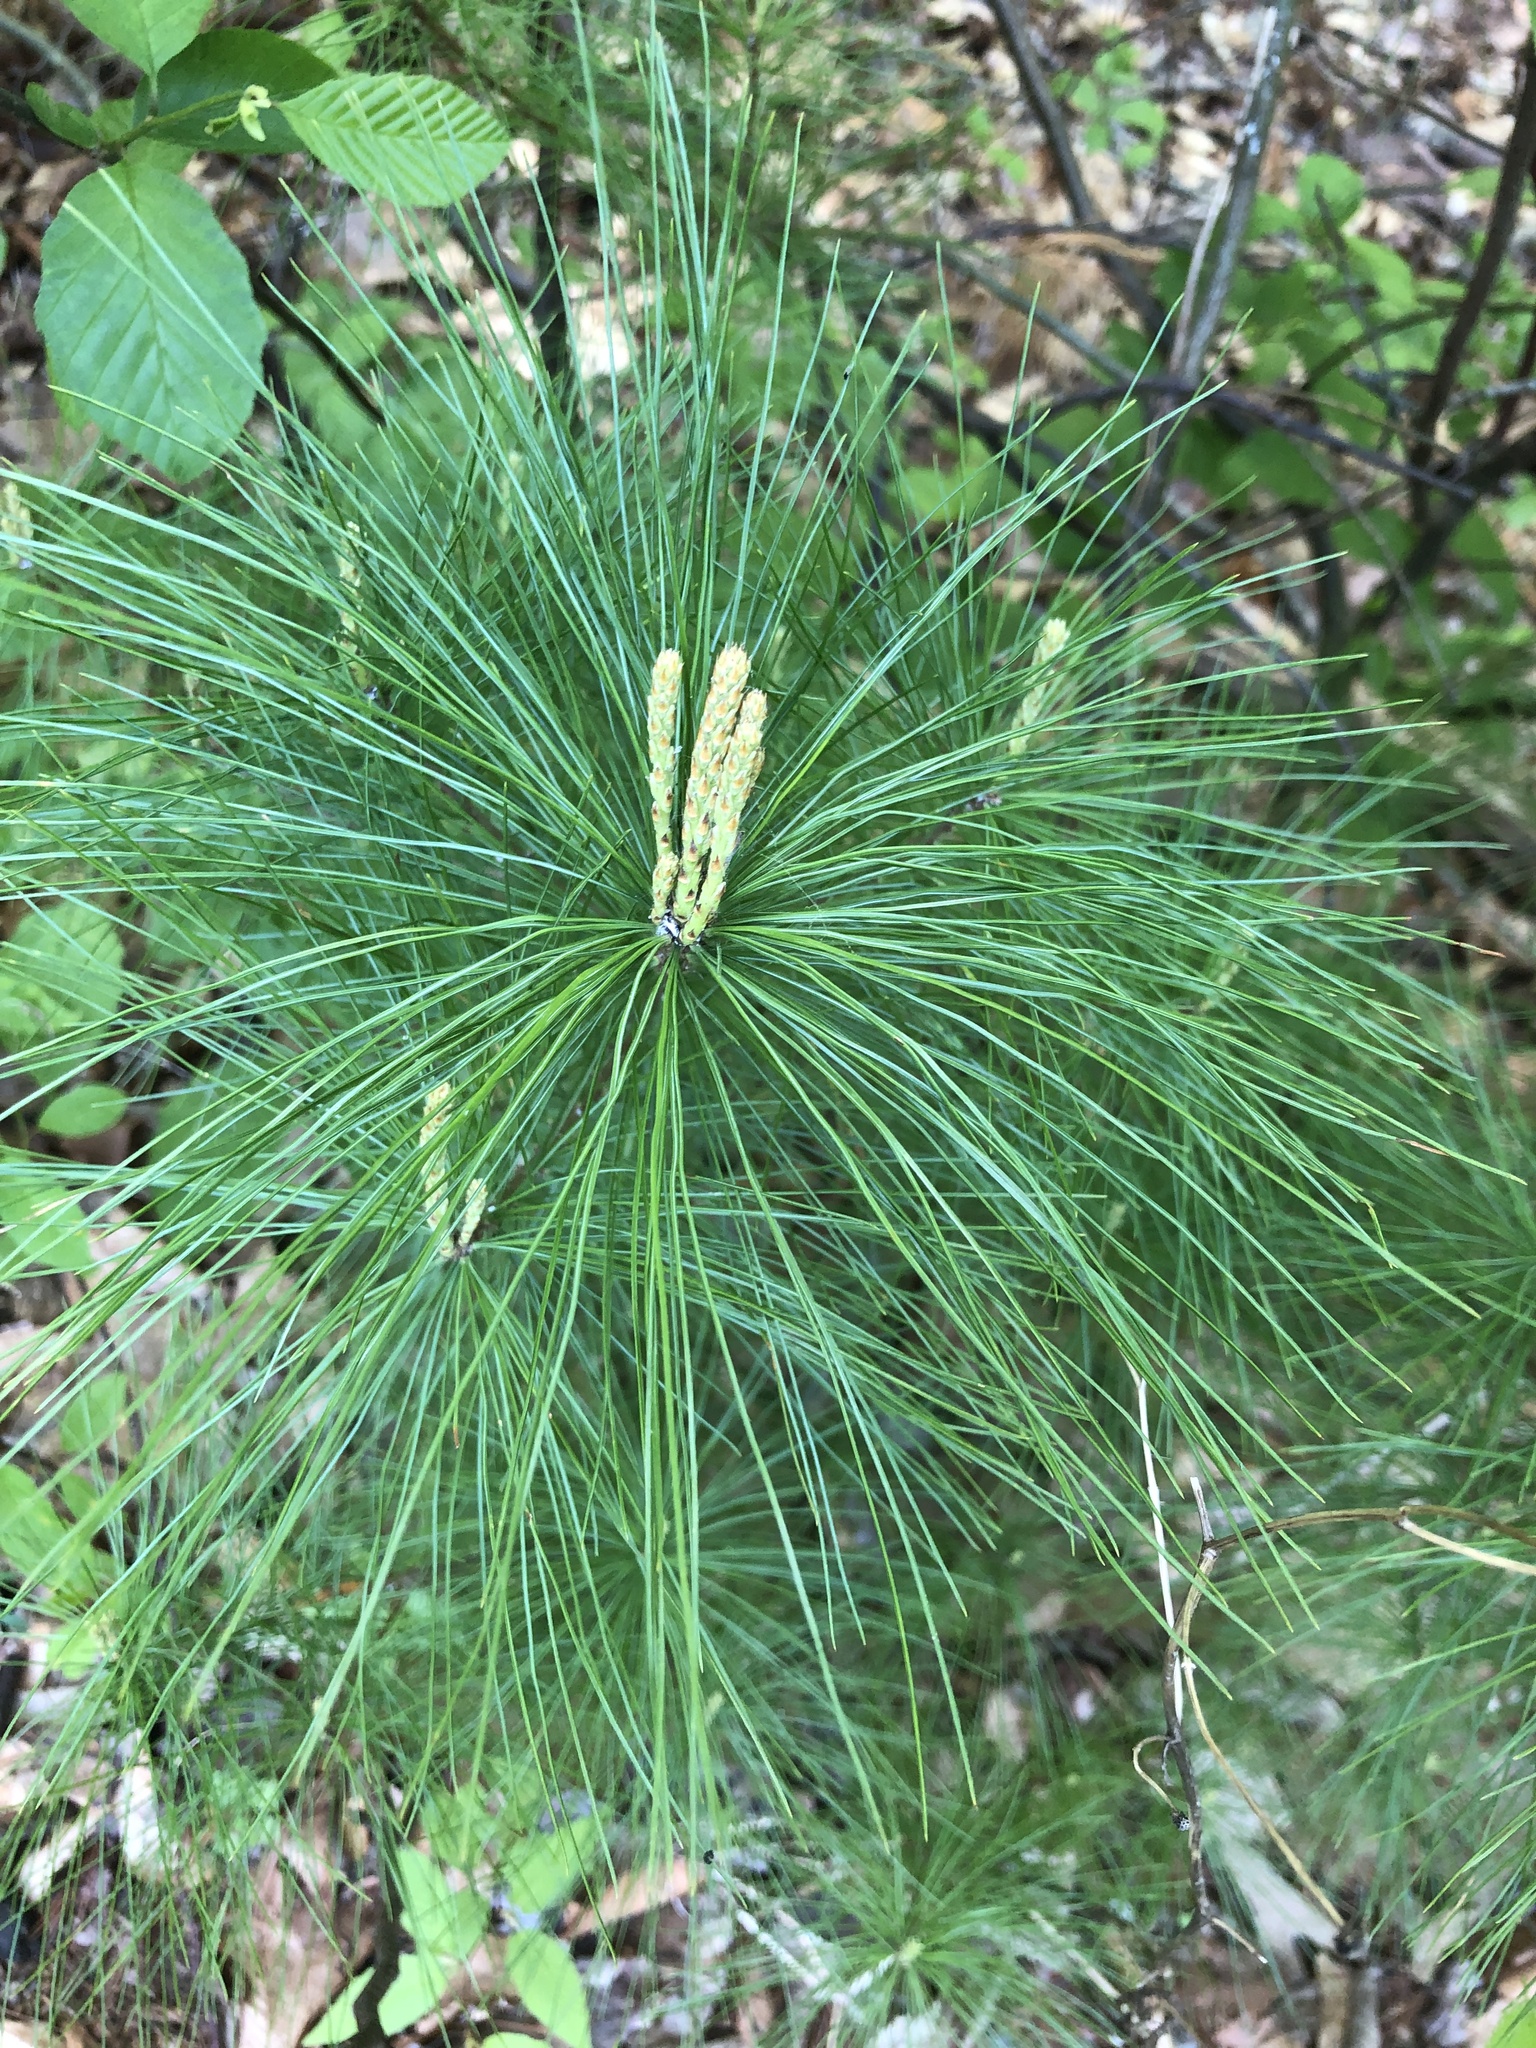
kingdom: Plantae
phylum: Tracheophyta
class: Pinopsida
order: Pinales
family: Pinaceae
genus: Pinus
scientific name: Pinus strobus
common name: Weymouth pine
